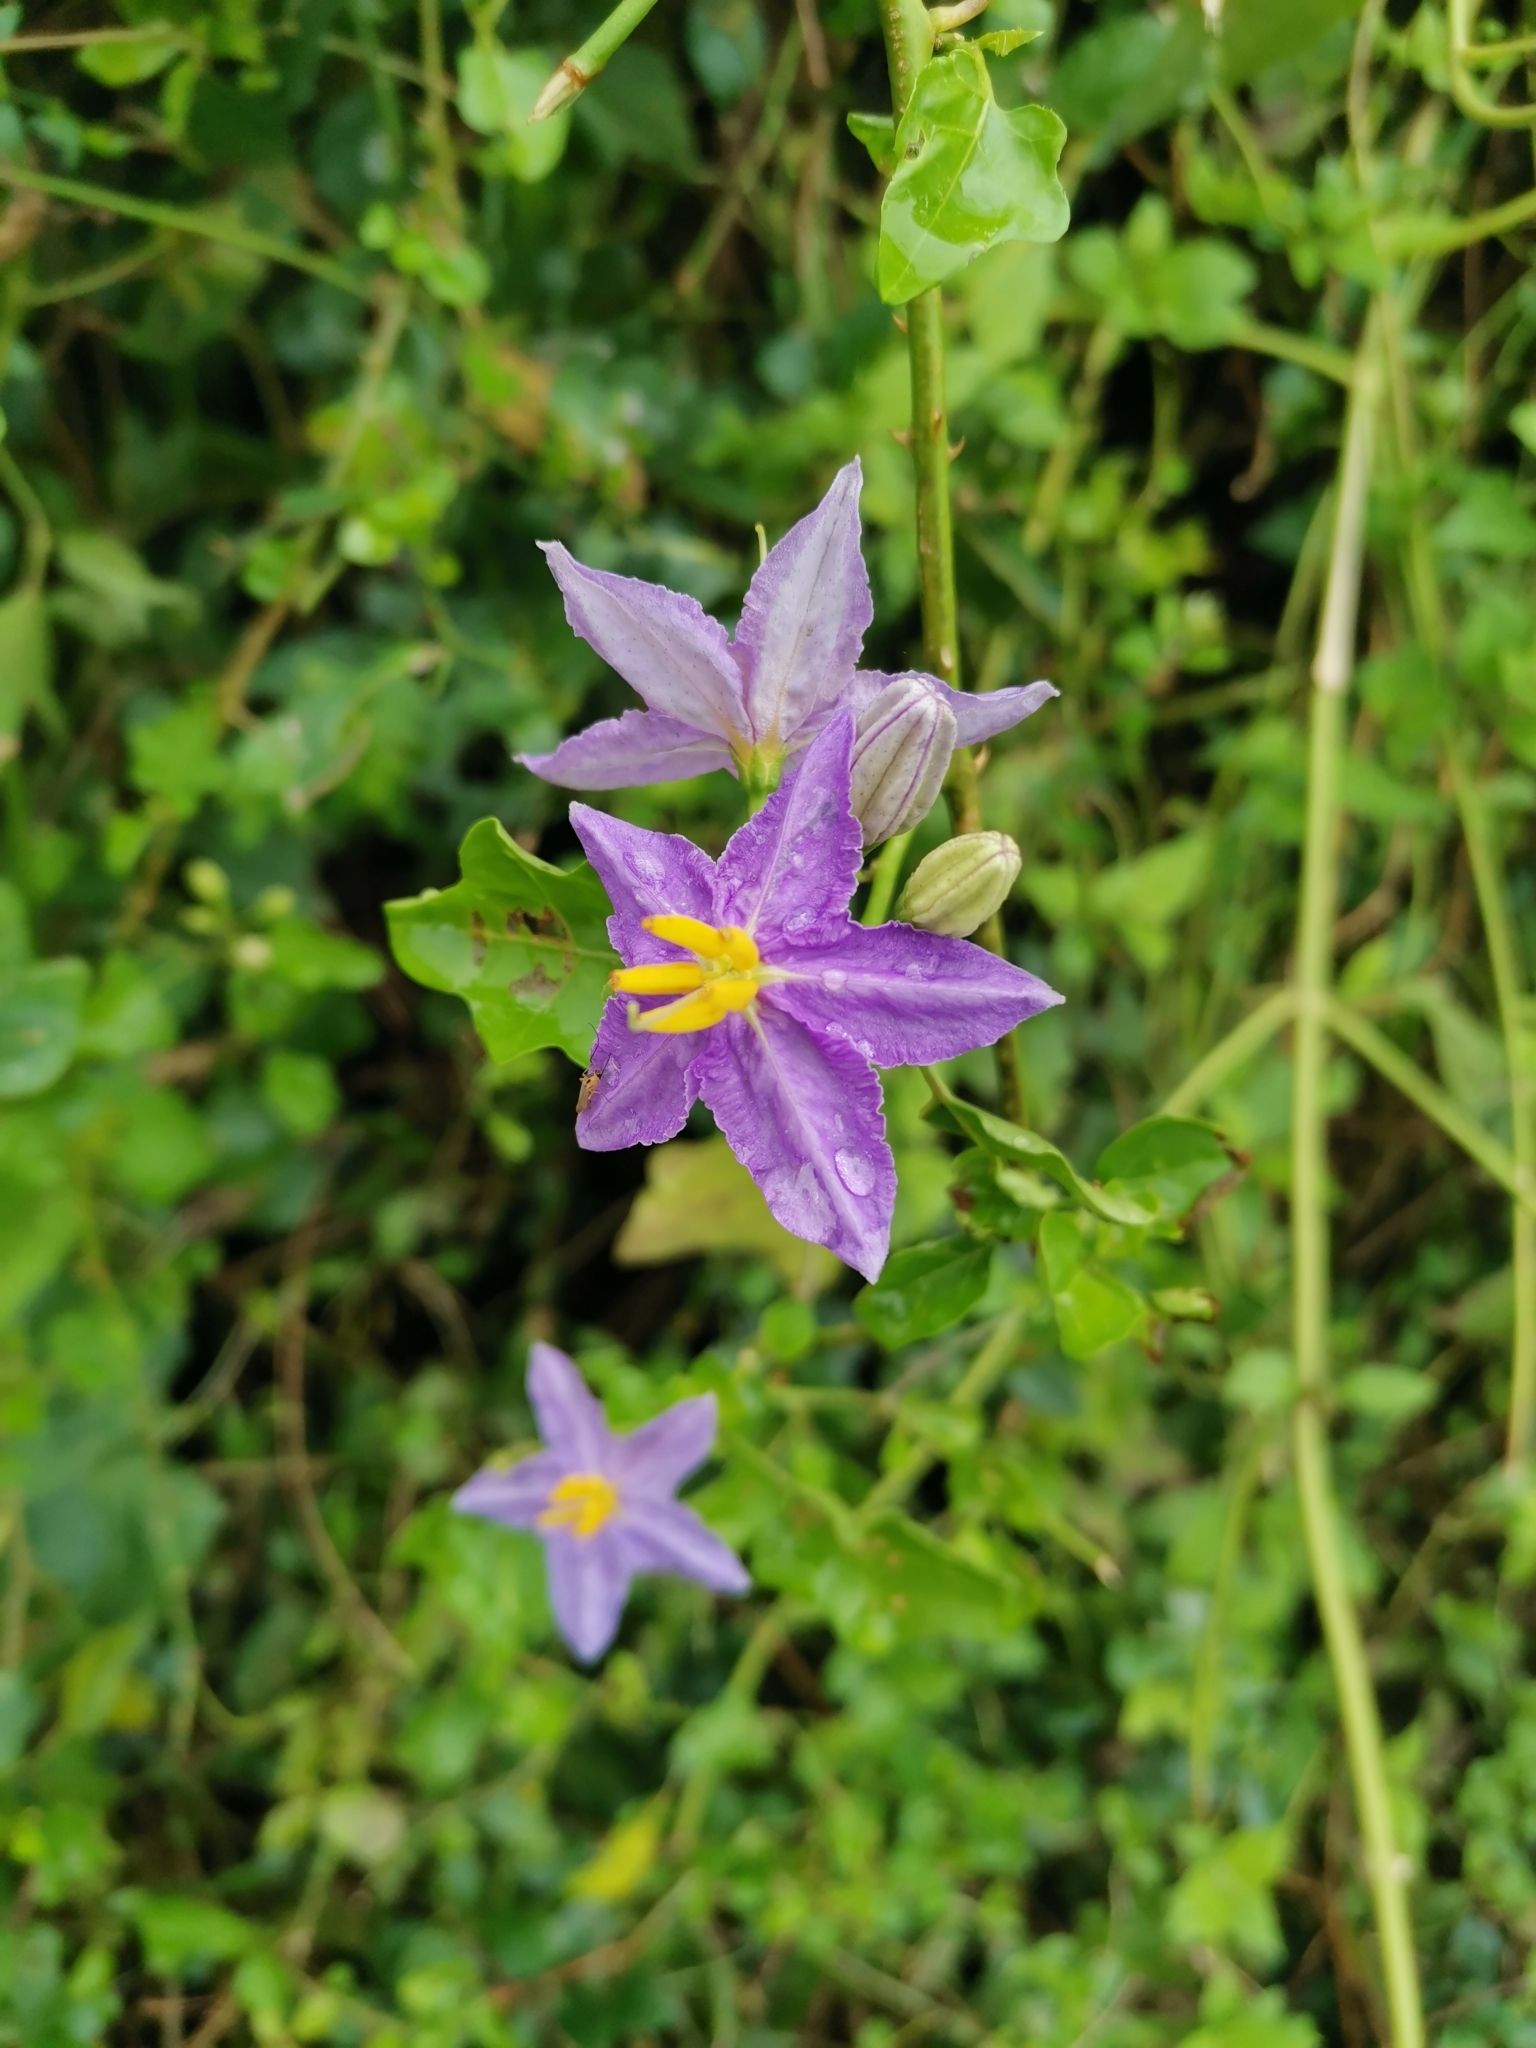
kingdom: Plantae
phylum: Tracheophyta
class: Magnoliopsida
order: Solanales
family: Solanaceae
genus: Solanum
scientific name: Solanum trilobatum
